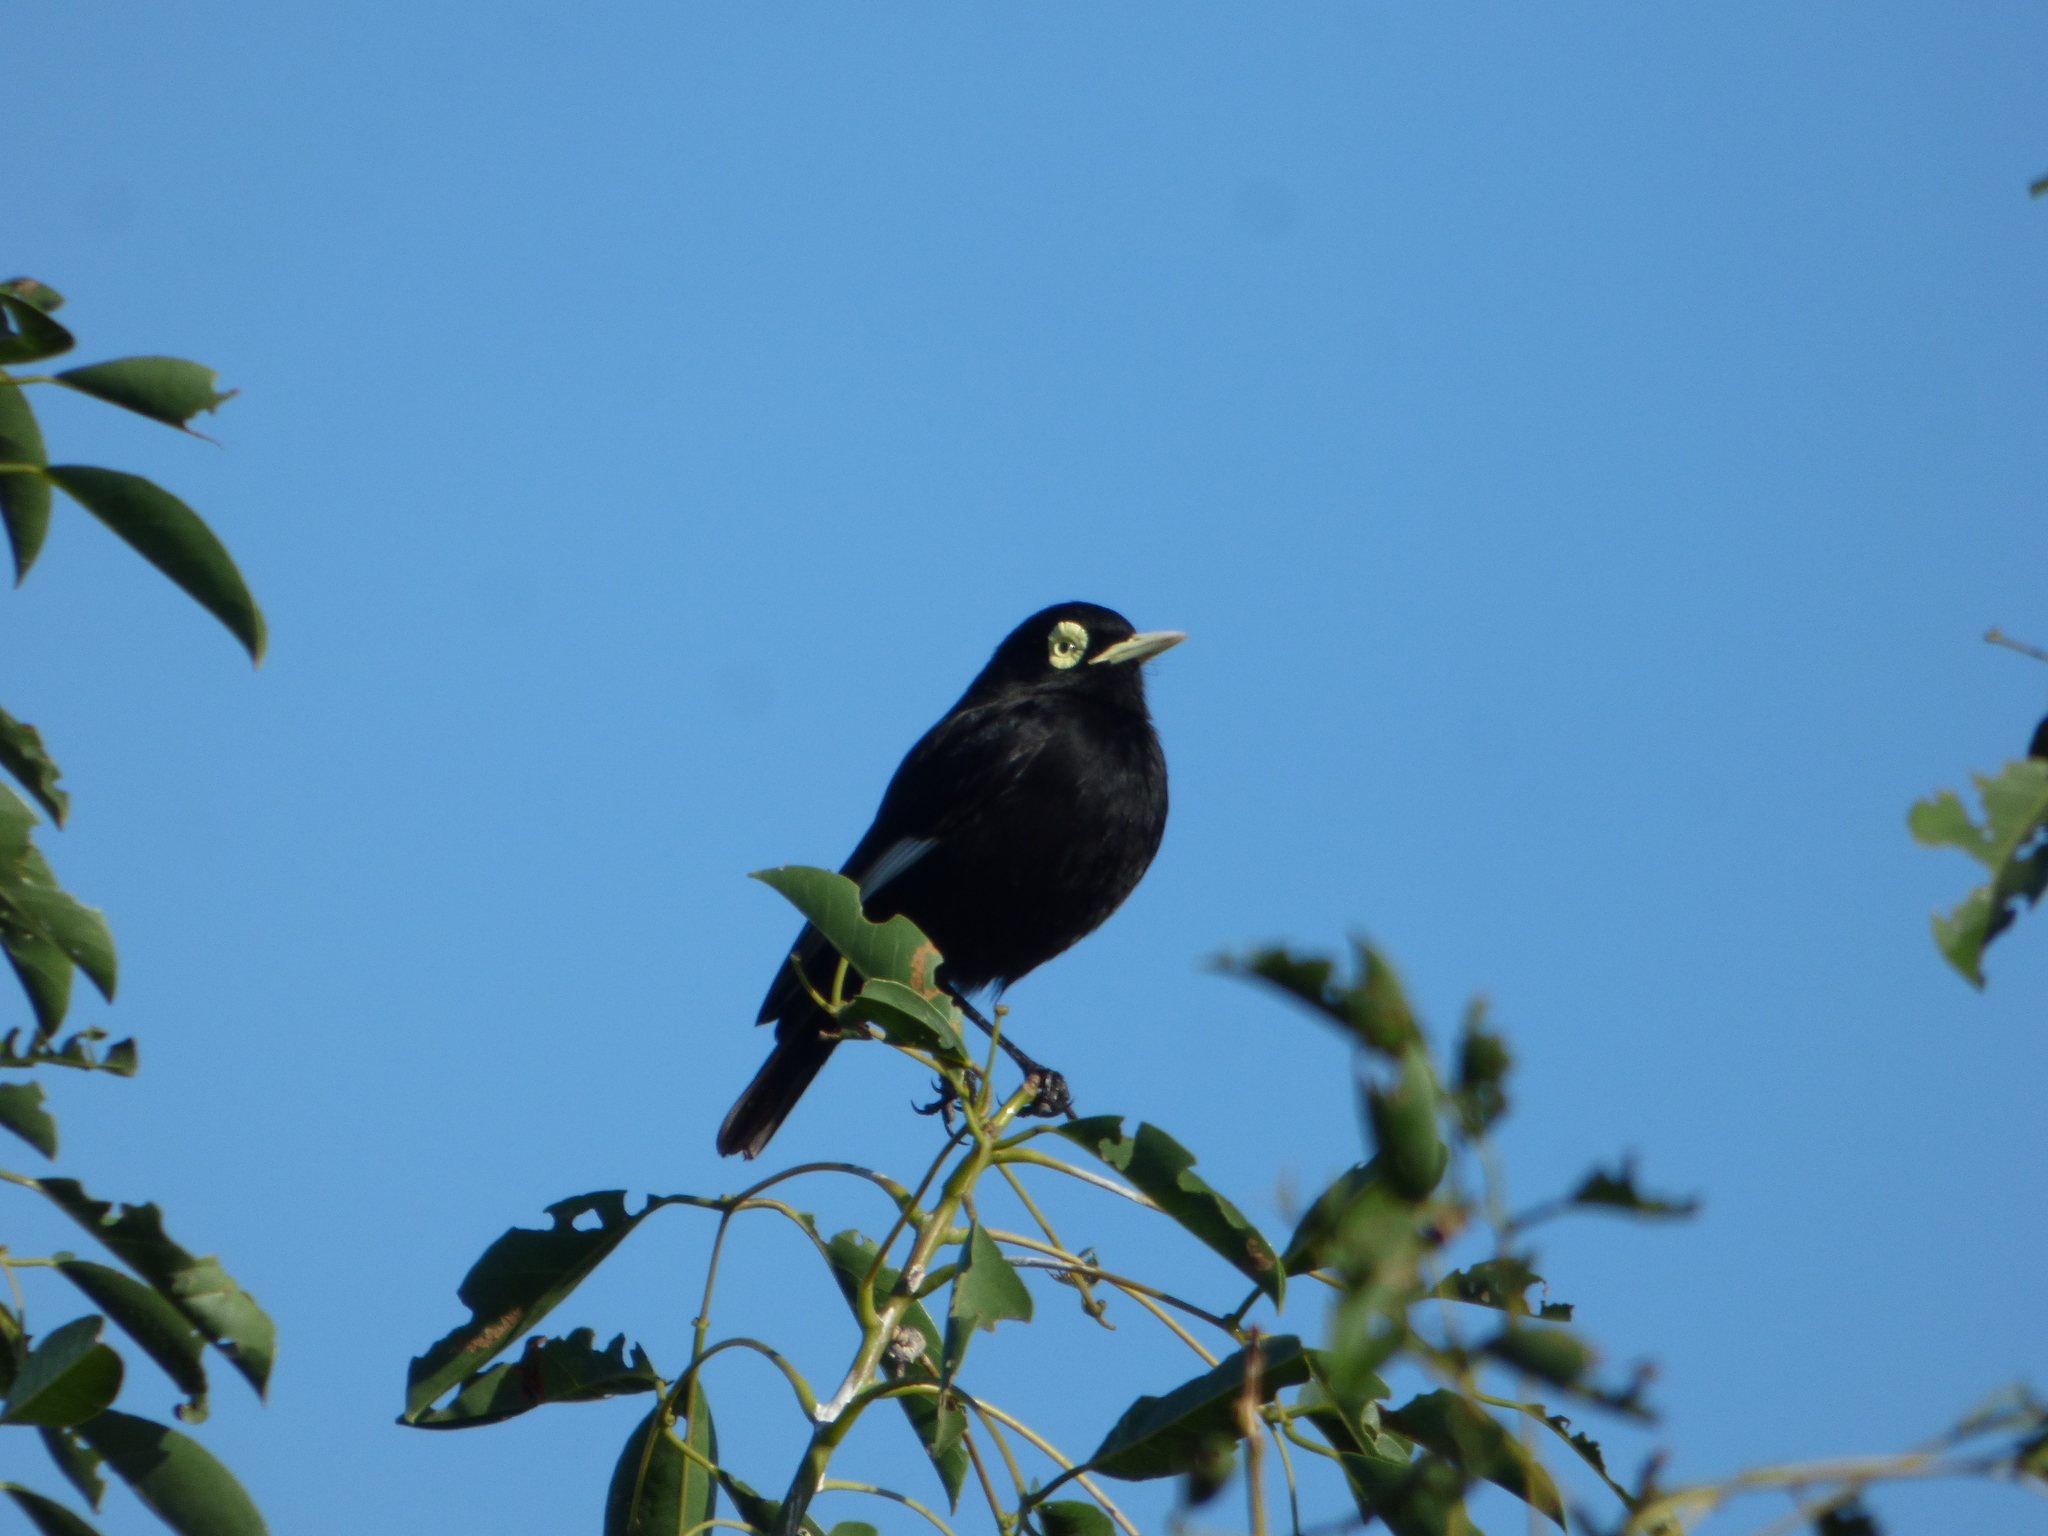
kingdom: Animalia
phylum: Chordata
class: Aves
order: Passeriformes
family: Tyrannidae
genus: Hymenops
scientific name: Hymenops perspicillatus
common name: Spectacled tyrant
